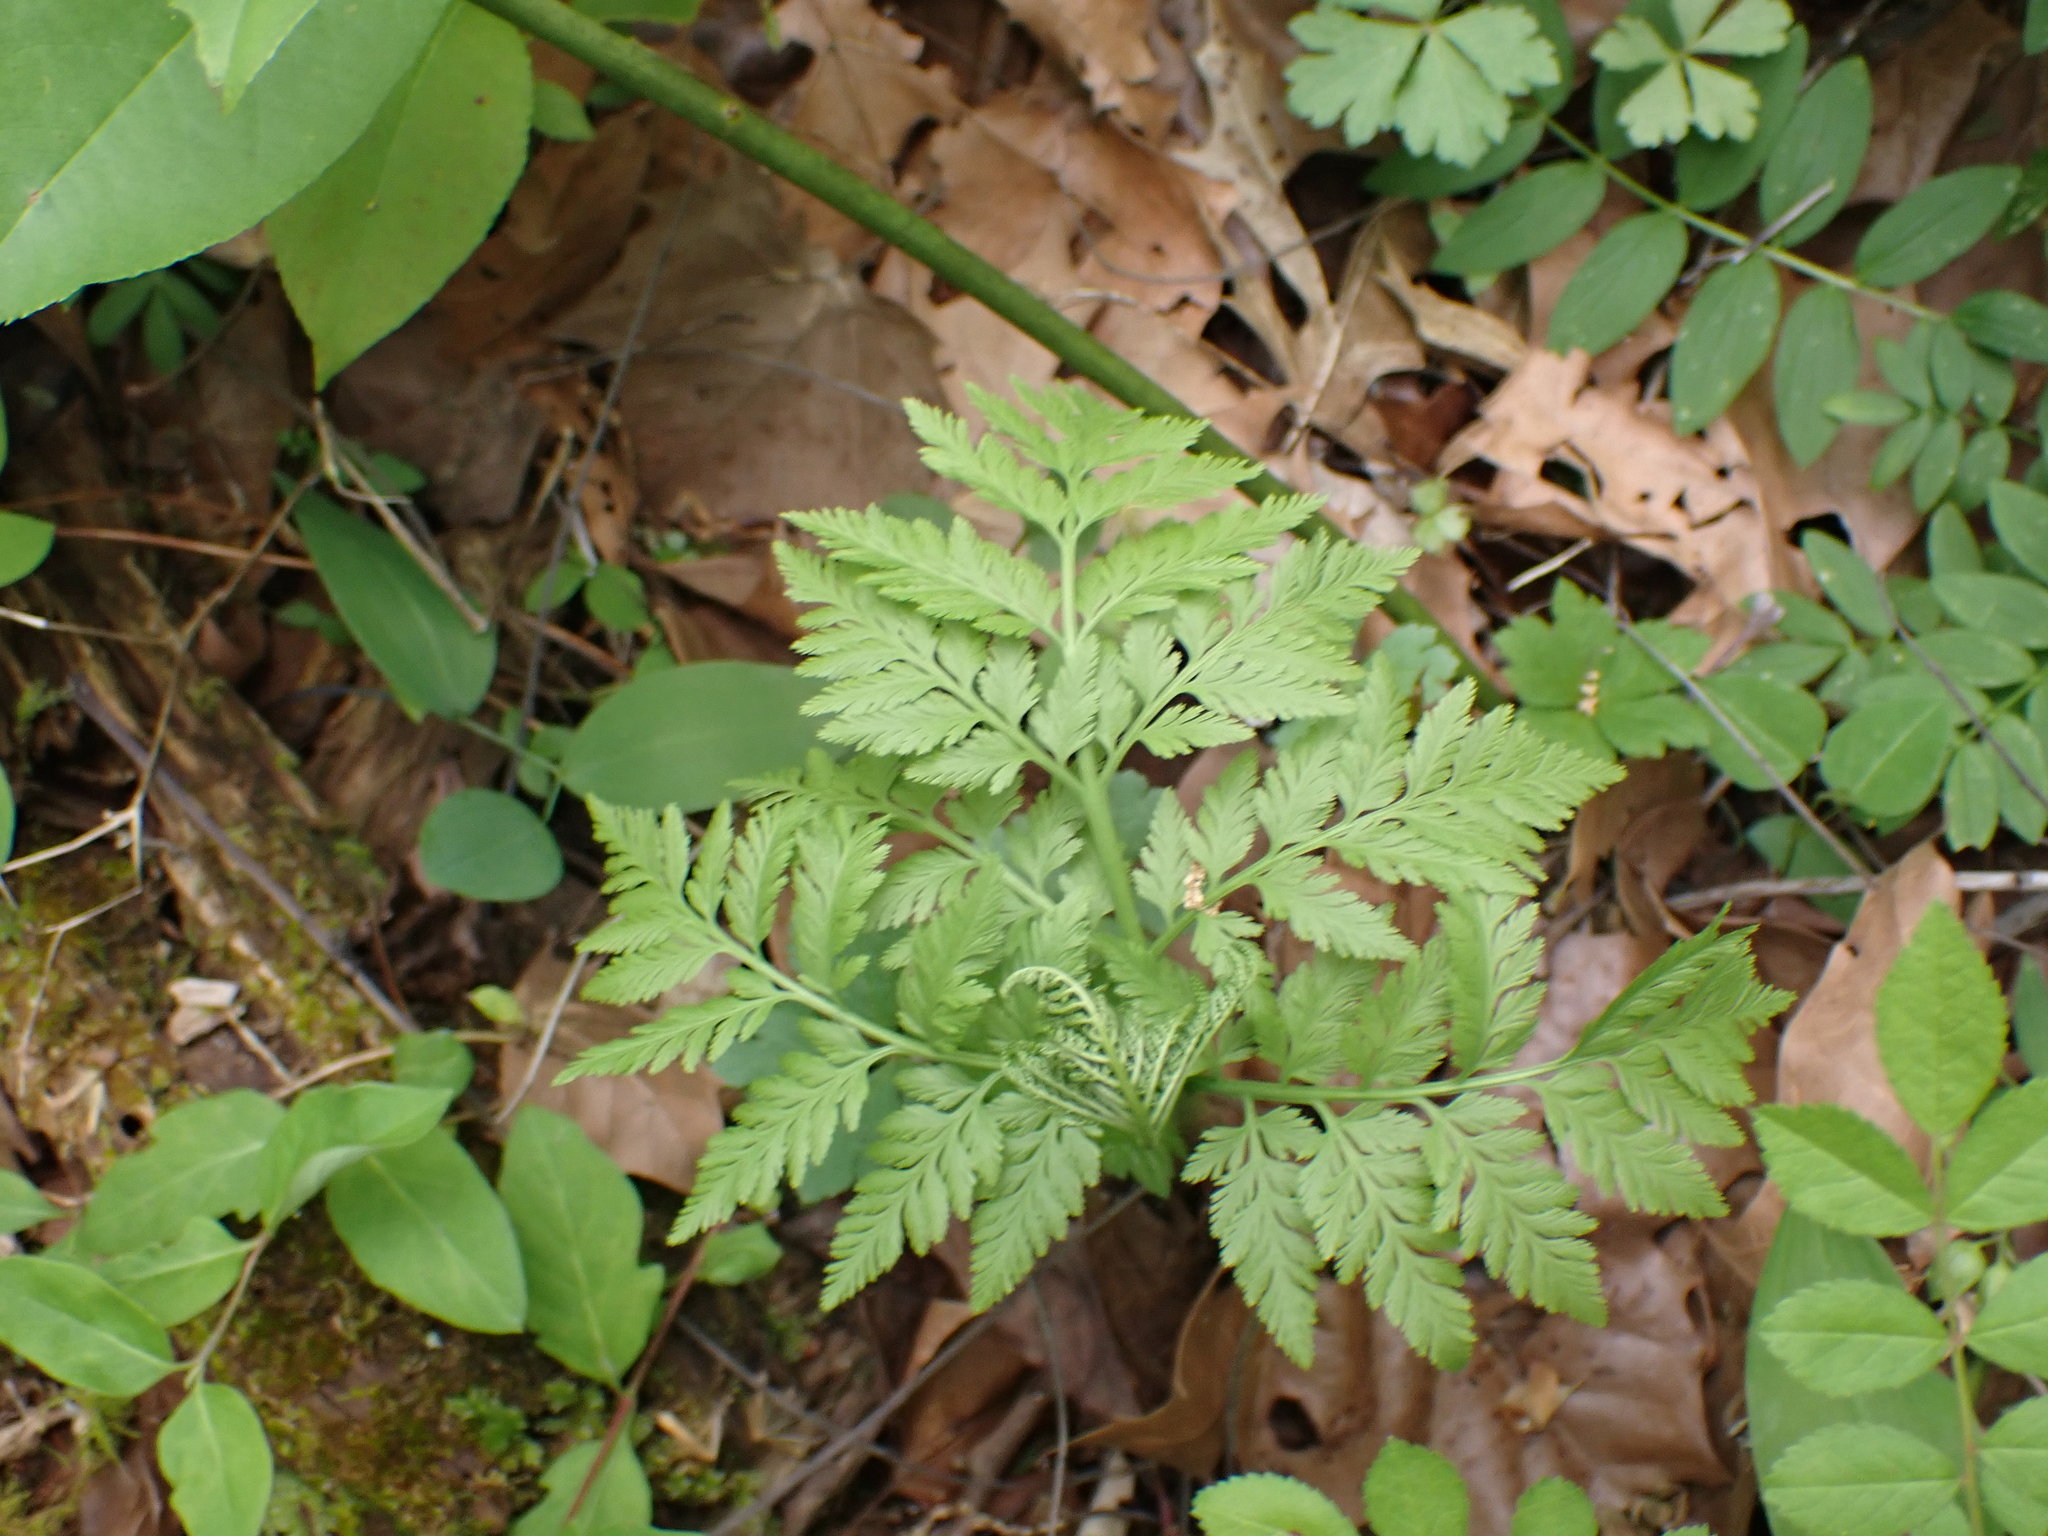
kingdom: Plantae
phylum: Tracheophyta
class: Polypodiopsida
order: Ophioglossales
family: Ophioglossaceae
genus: Botrypus
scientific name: Botrypus virginianus
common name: Common grapefern
